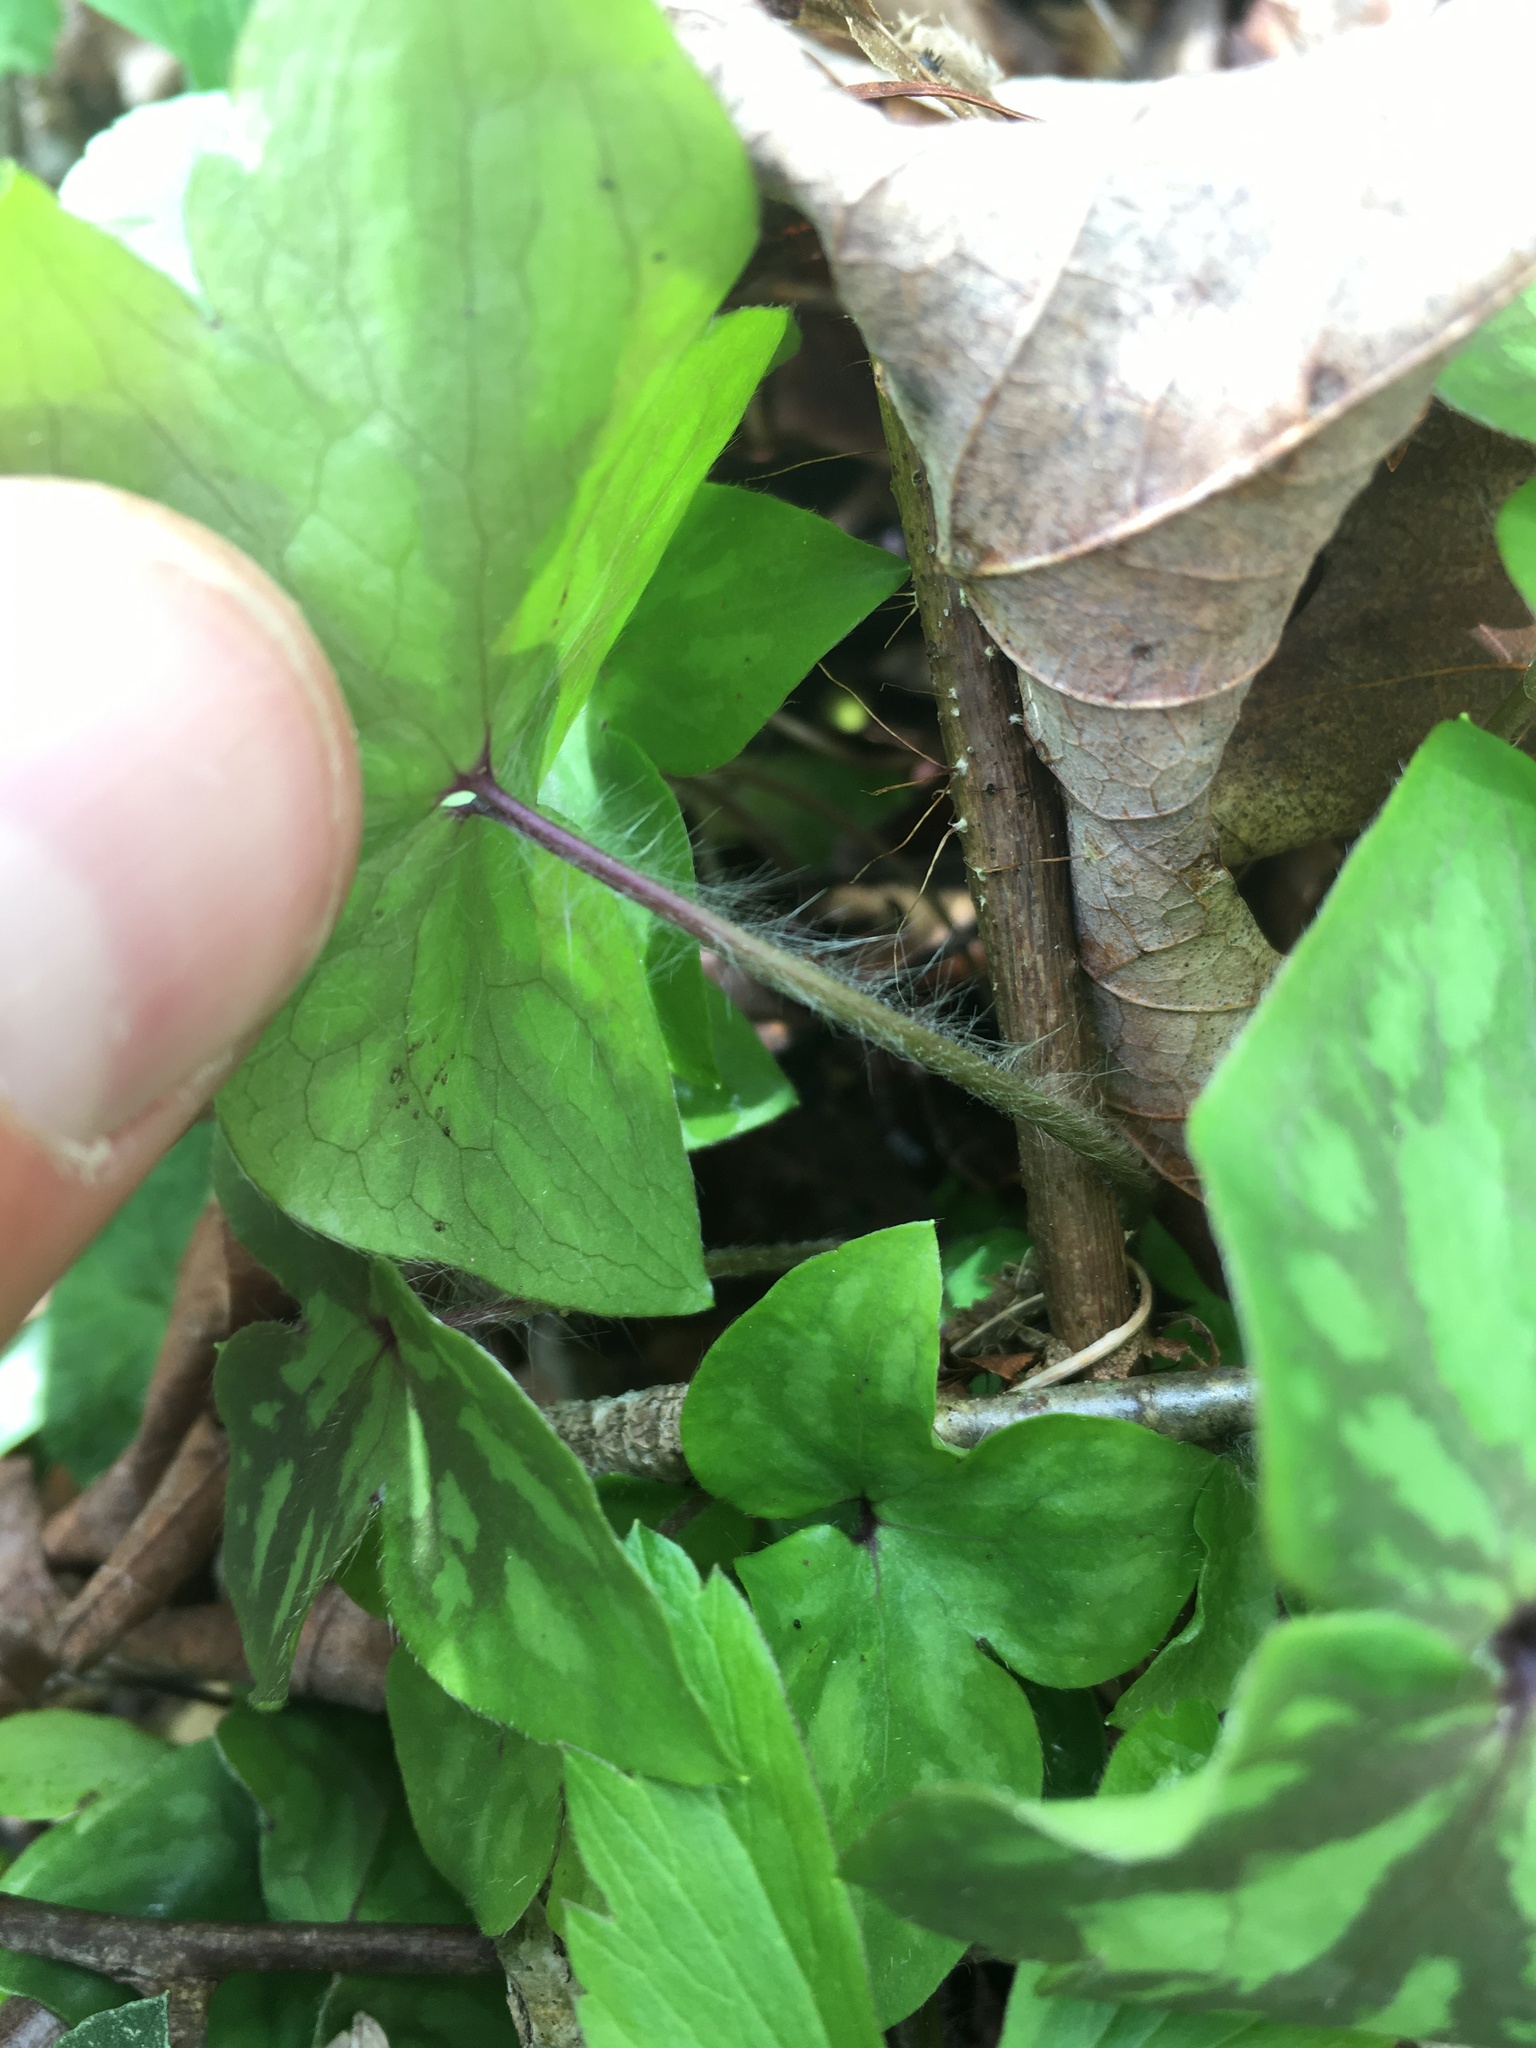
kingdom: Plantae
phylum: Tracheophyta
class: Magnoliopsida
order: Ranunculales
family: Ranunculaceae
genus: Hepatica
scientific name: Hepatica acutiloba
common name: Sharp-lobed hepatica
